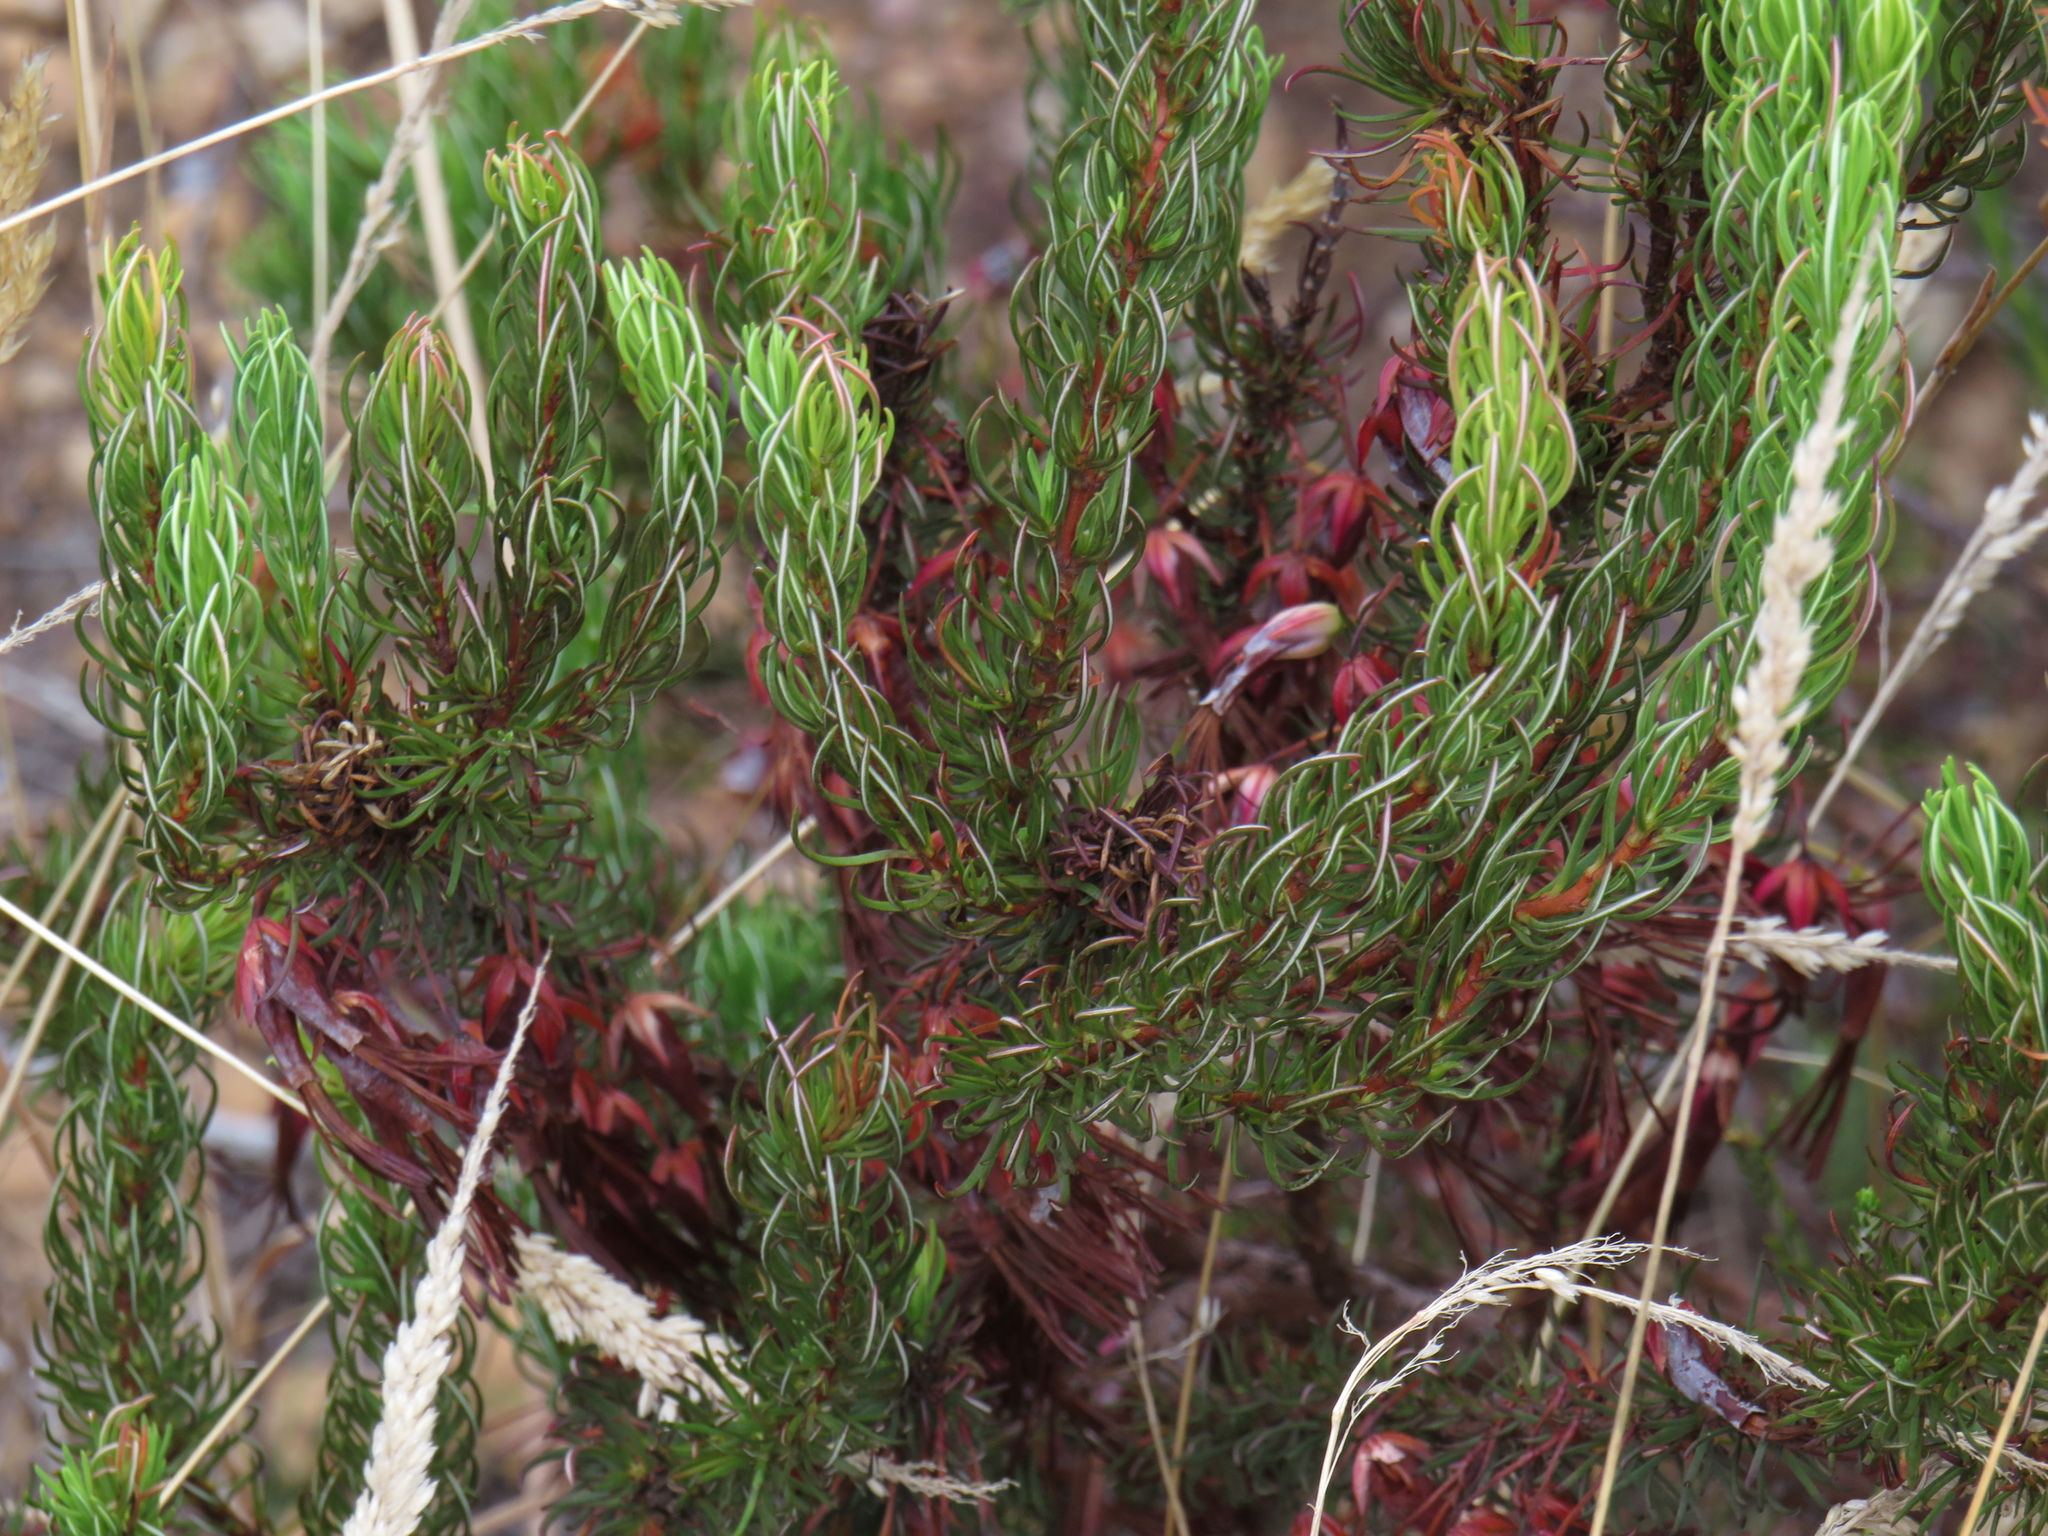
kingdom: Plantae
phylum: Tracheophyta
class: Magnoliopsida
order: Ericales
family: Ericaceae
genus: Erica
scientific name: Erica plukenetii
